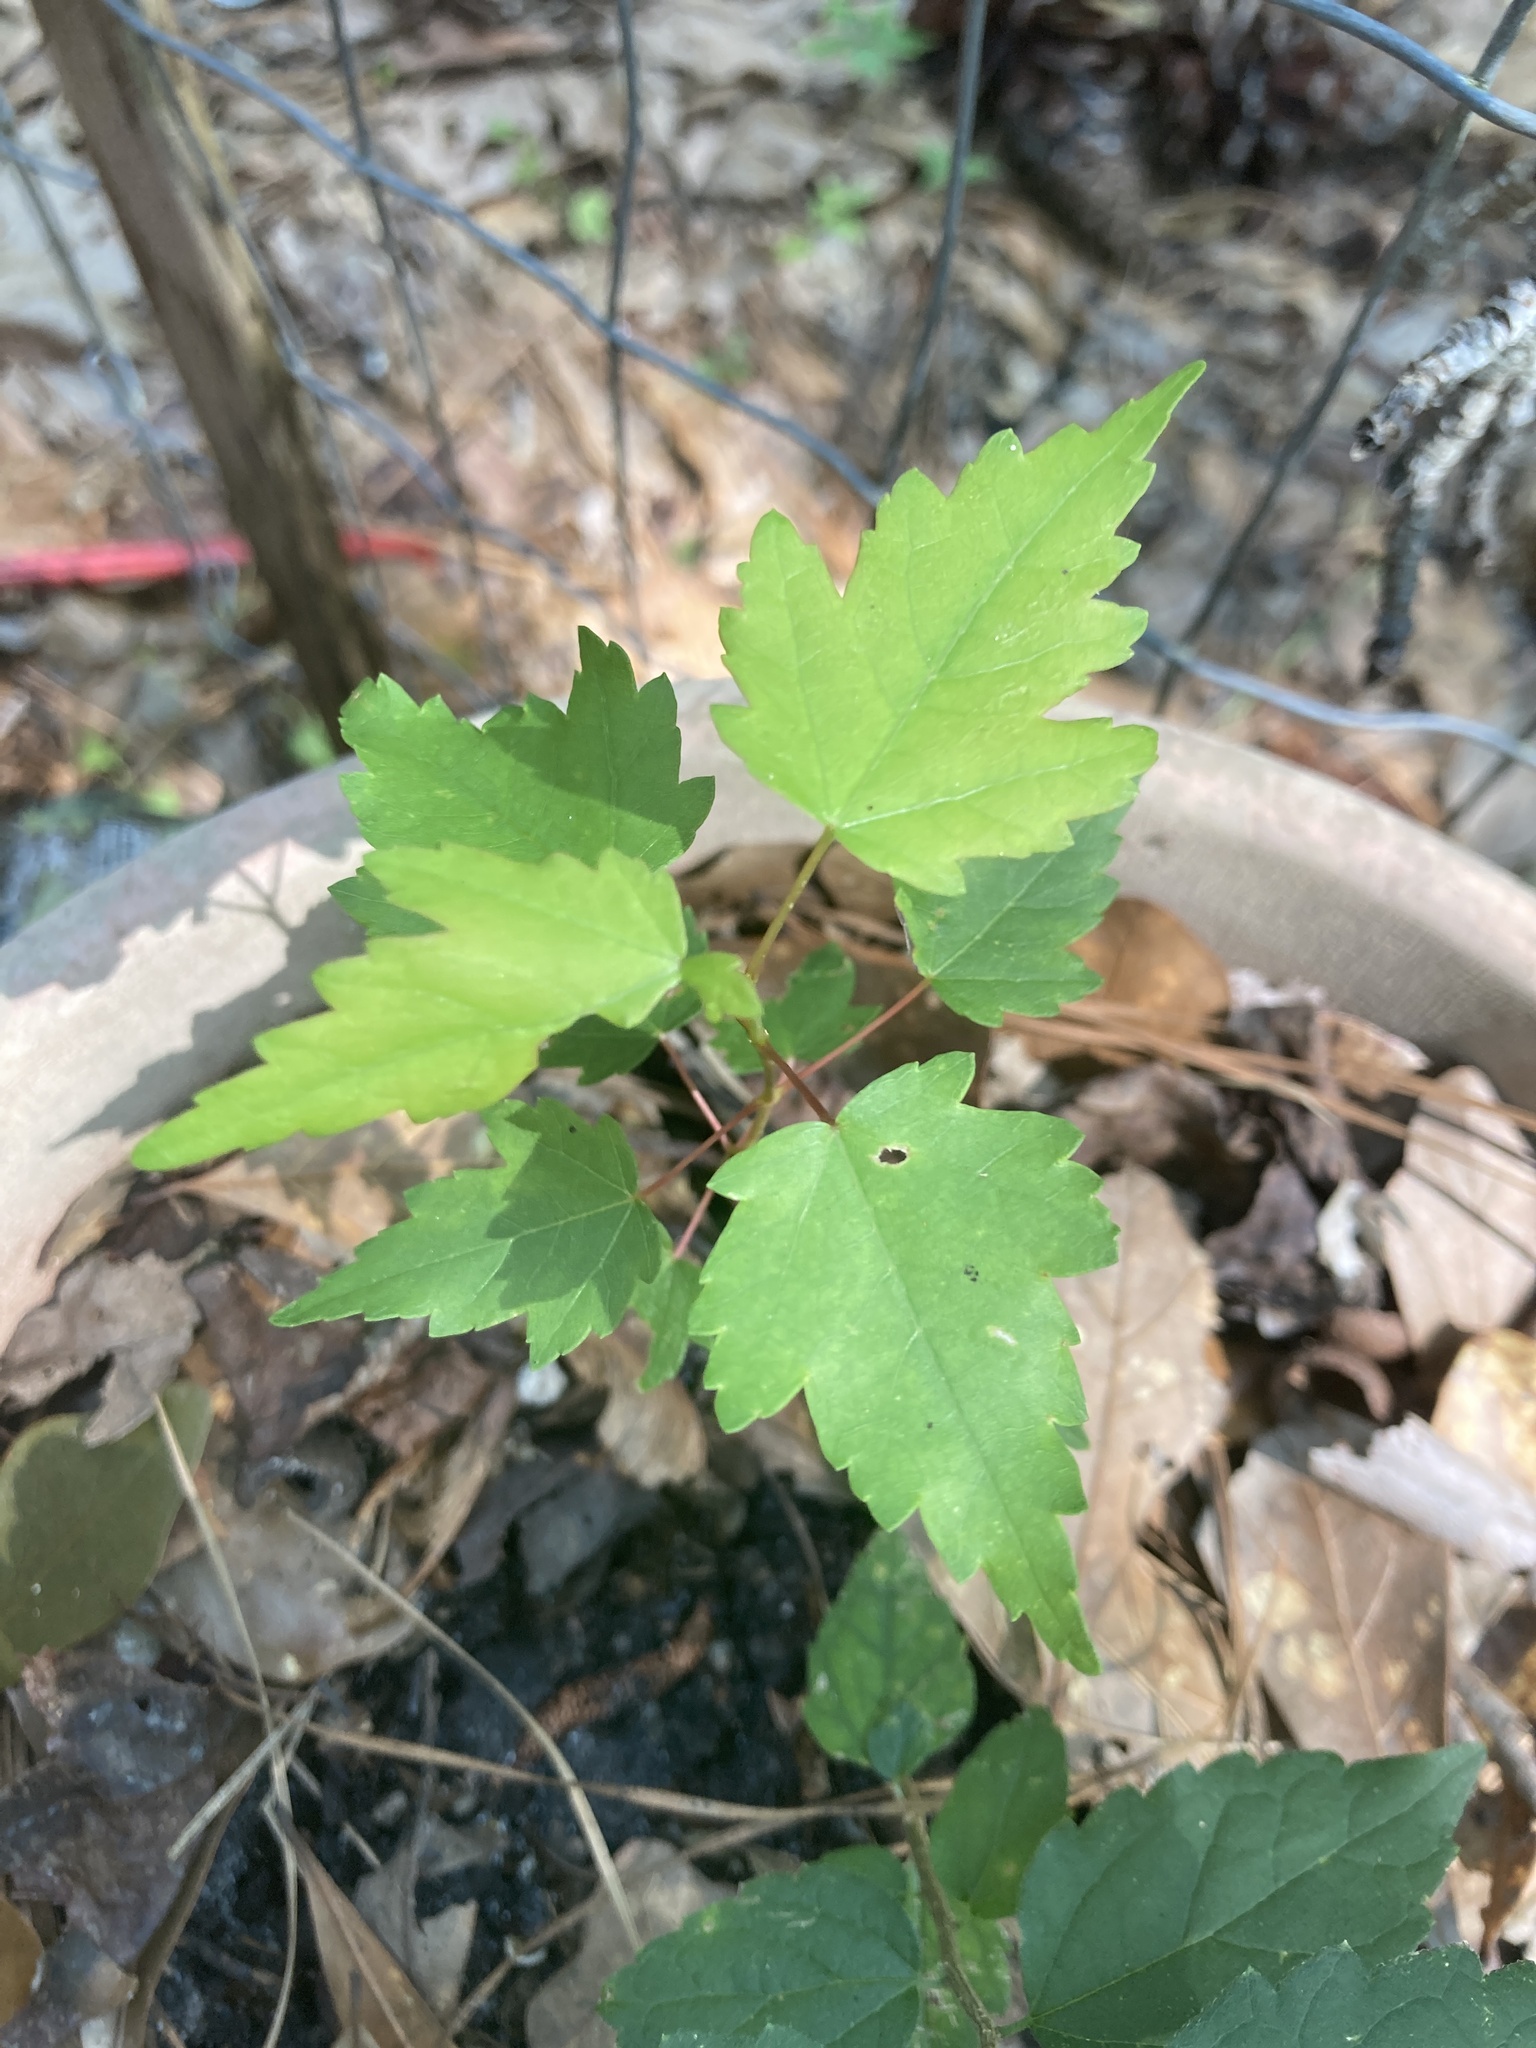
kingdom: Plantae
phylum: Tracheophyta
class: Magnoliopsida
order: Sapindales
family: Sapindaceae
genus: Acer
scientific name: Acer rubrum
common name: Red maple
